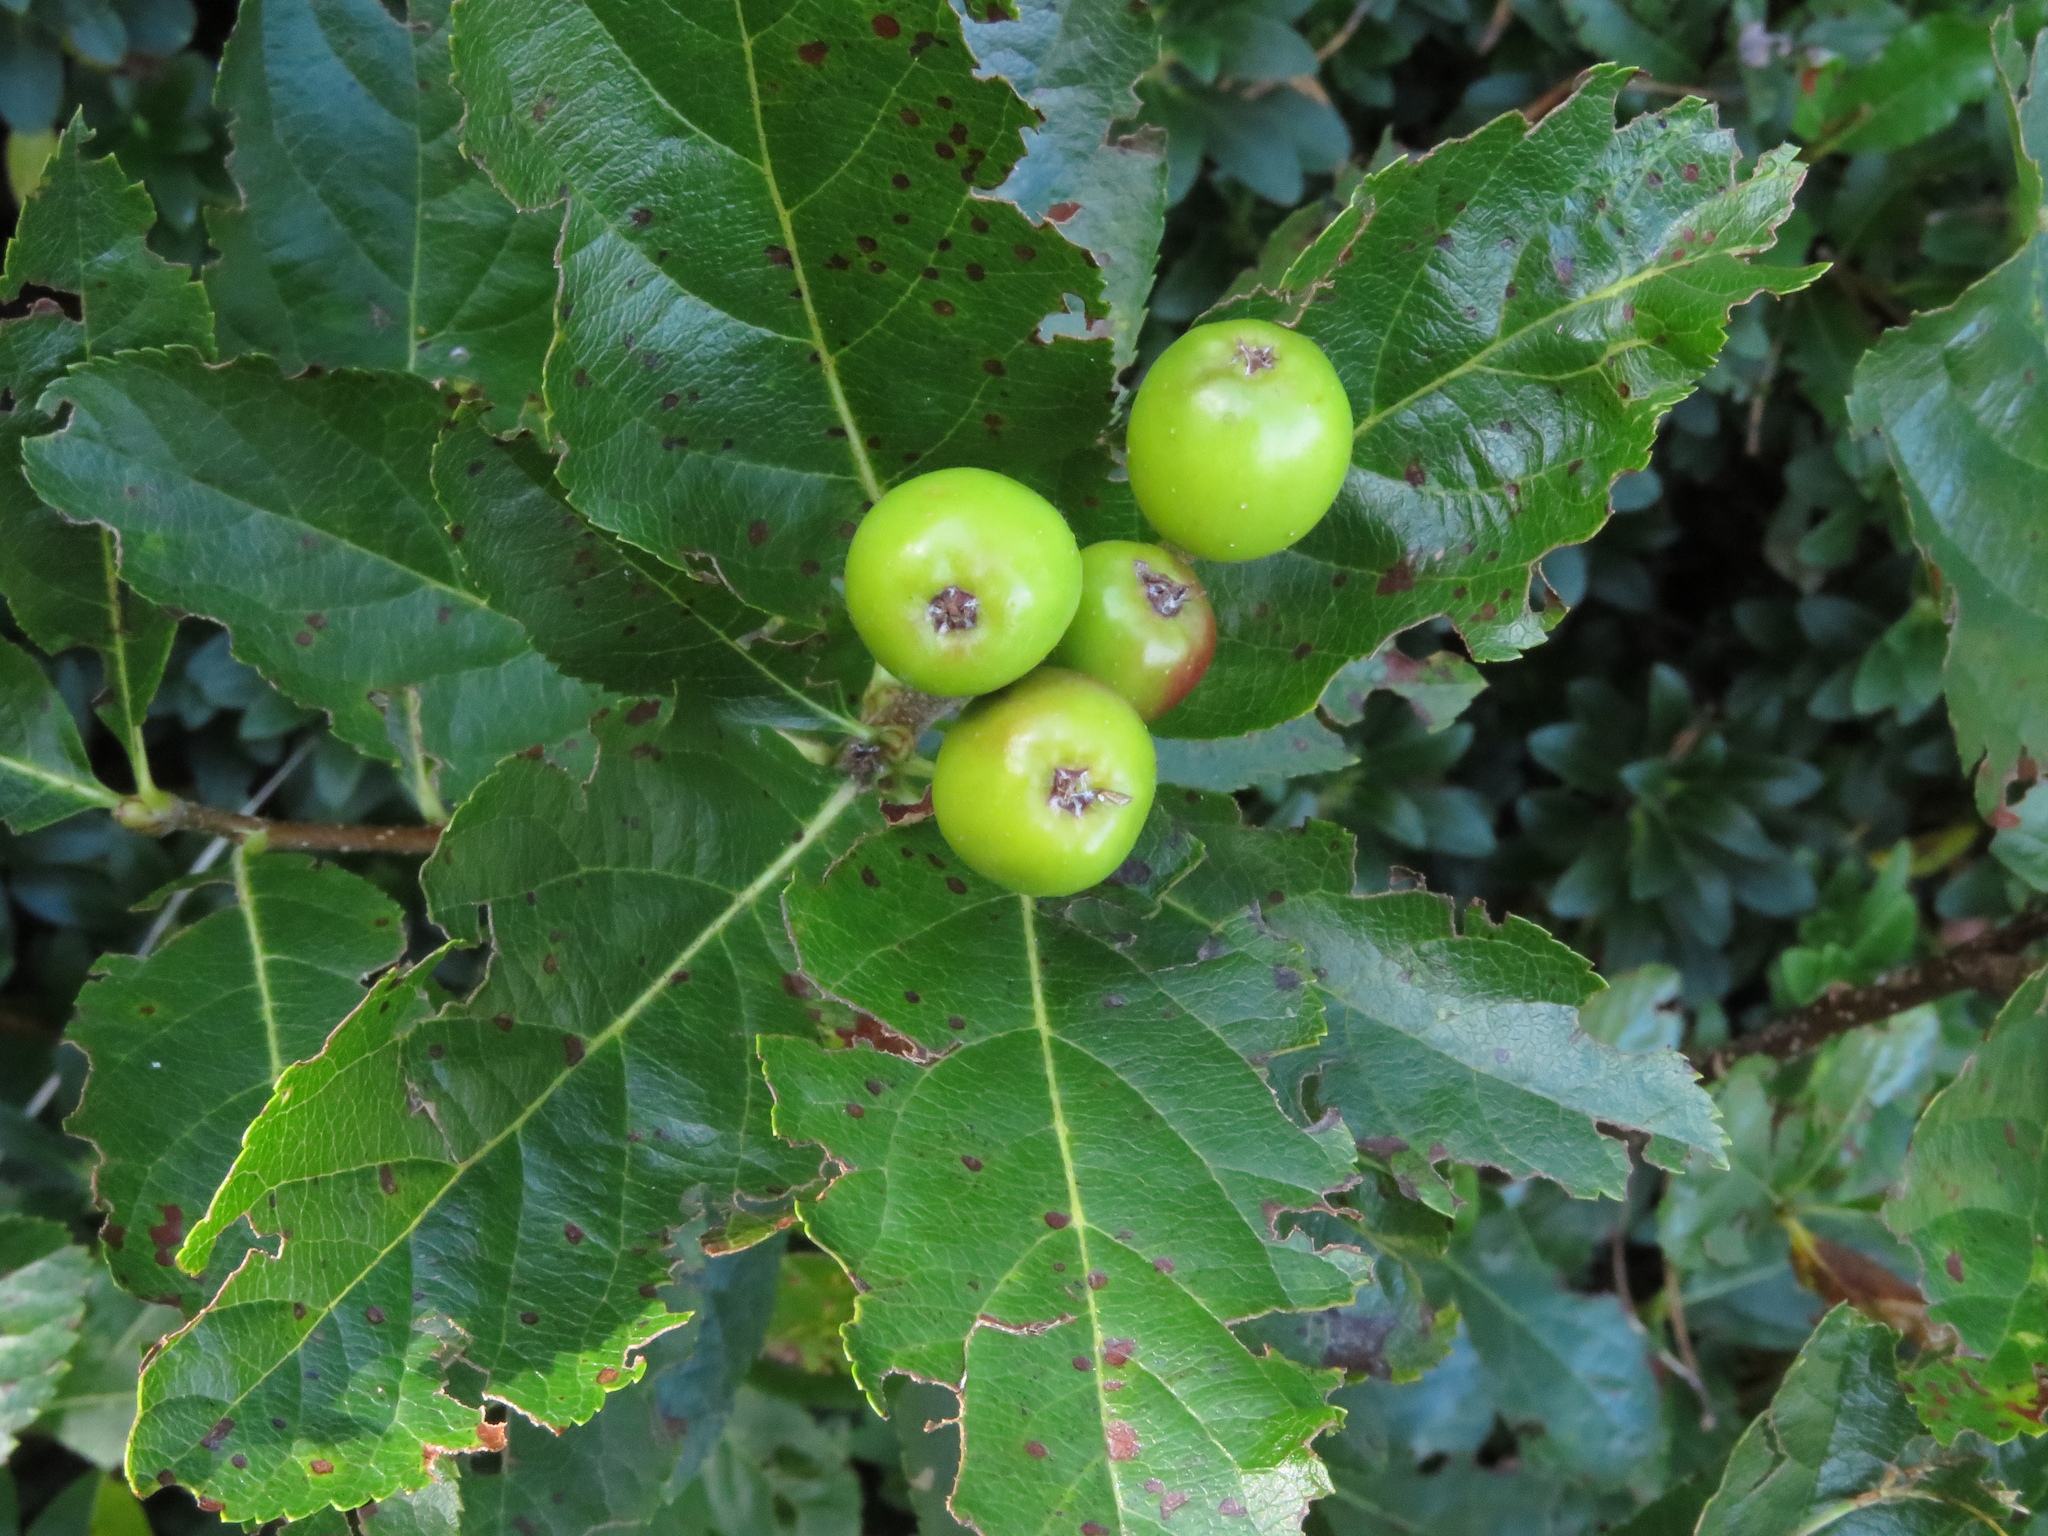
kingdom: Plantae
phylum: Tracheophyta
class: Magnoliopsida
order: Rosales
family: Rosaceae
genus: Chamaemespilus
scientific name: Chamaemespilus alpina
